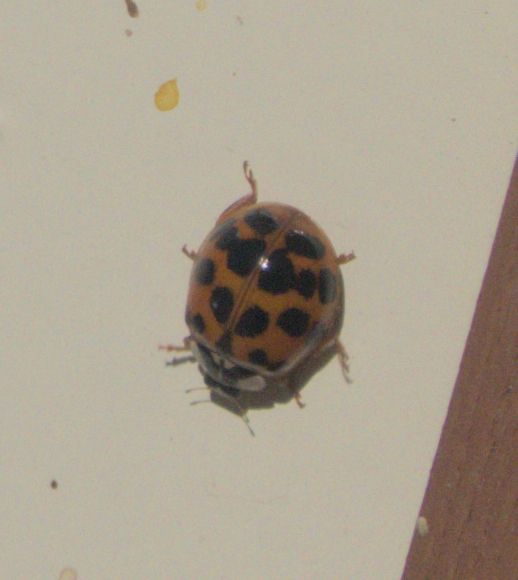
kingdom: Animalia
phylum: Arthropoda
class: Insecta
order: Coleoptera
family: Coccinellidae
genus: Harmonia
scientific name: Harmonia axyridis
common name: Harlequin ladybird
